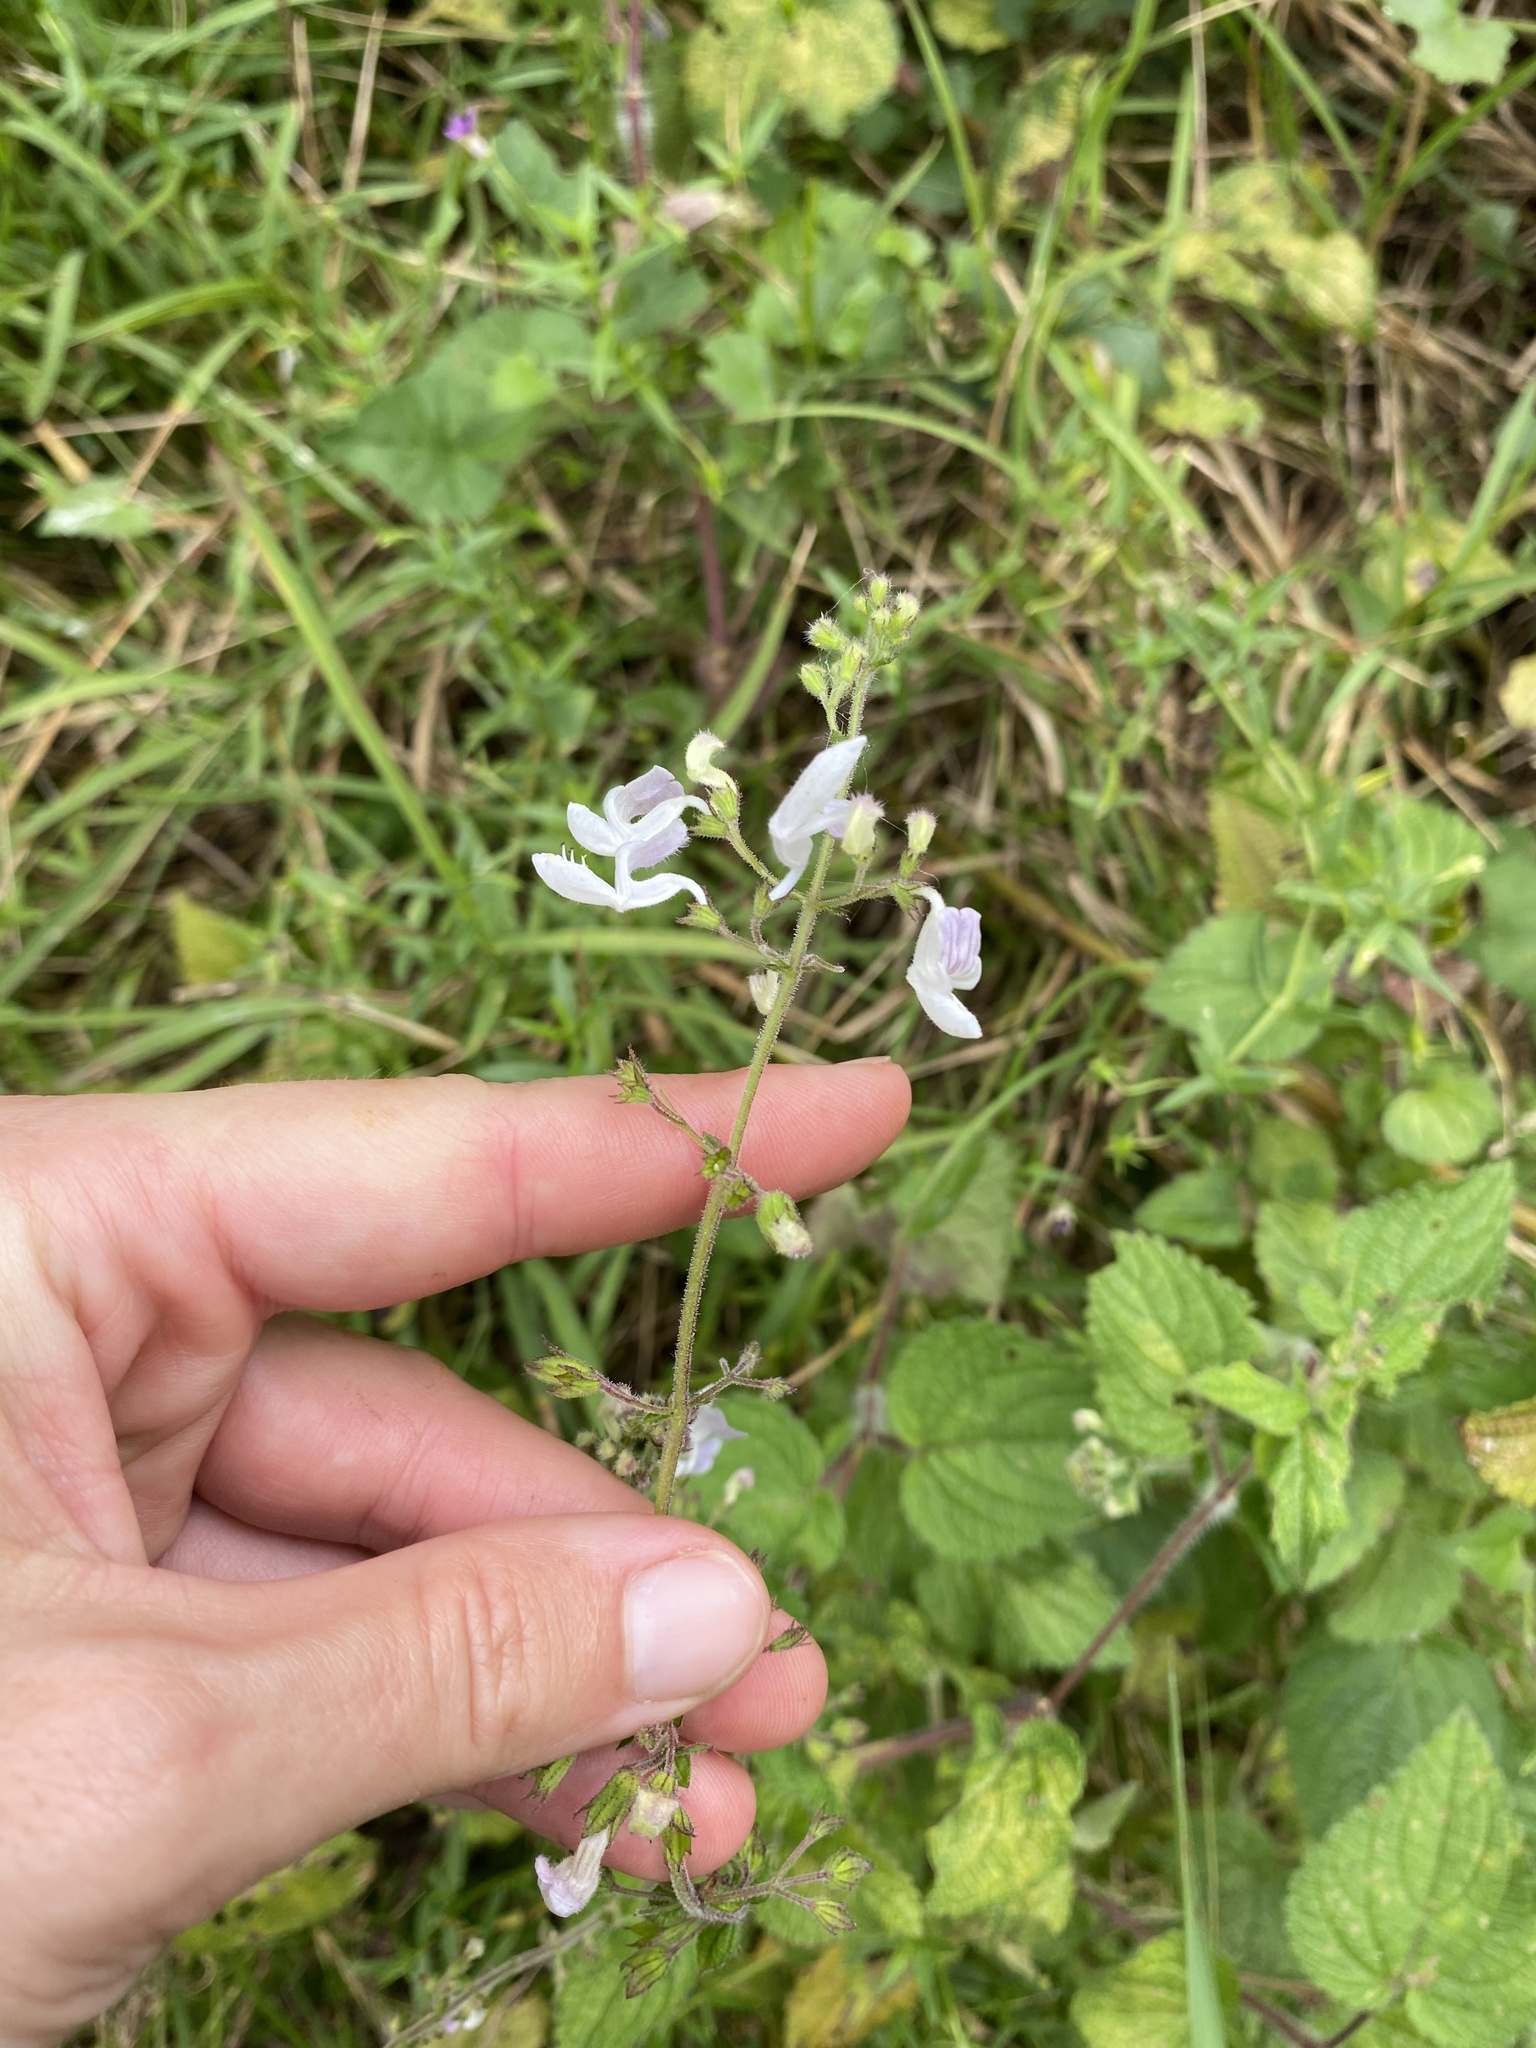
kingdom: Plantae
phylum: Tracheophyta
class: Magnoliopsida
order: Lamiales
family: Lamiaceae
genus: Equilabium
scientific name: Equilabium laxiflorum
